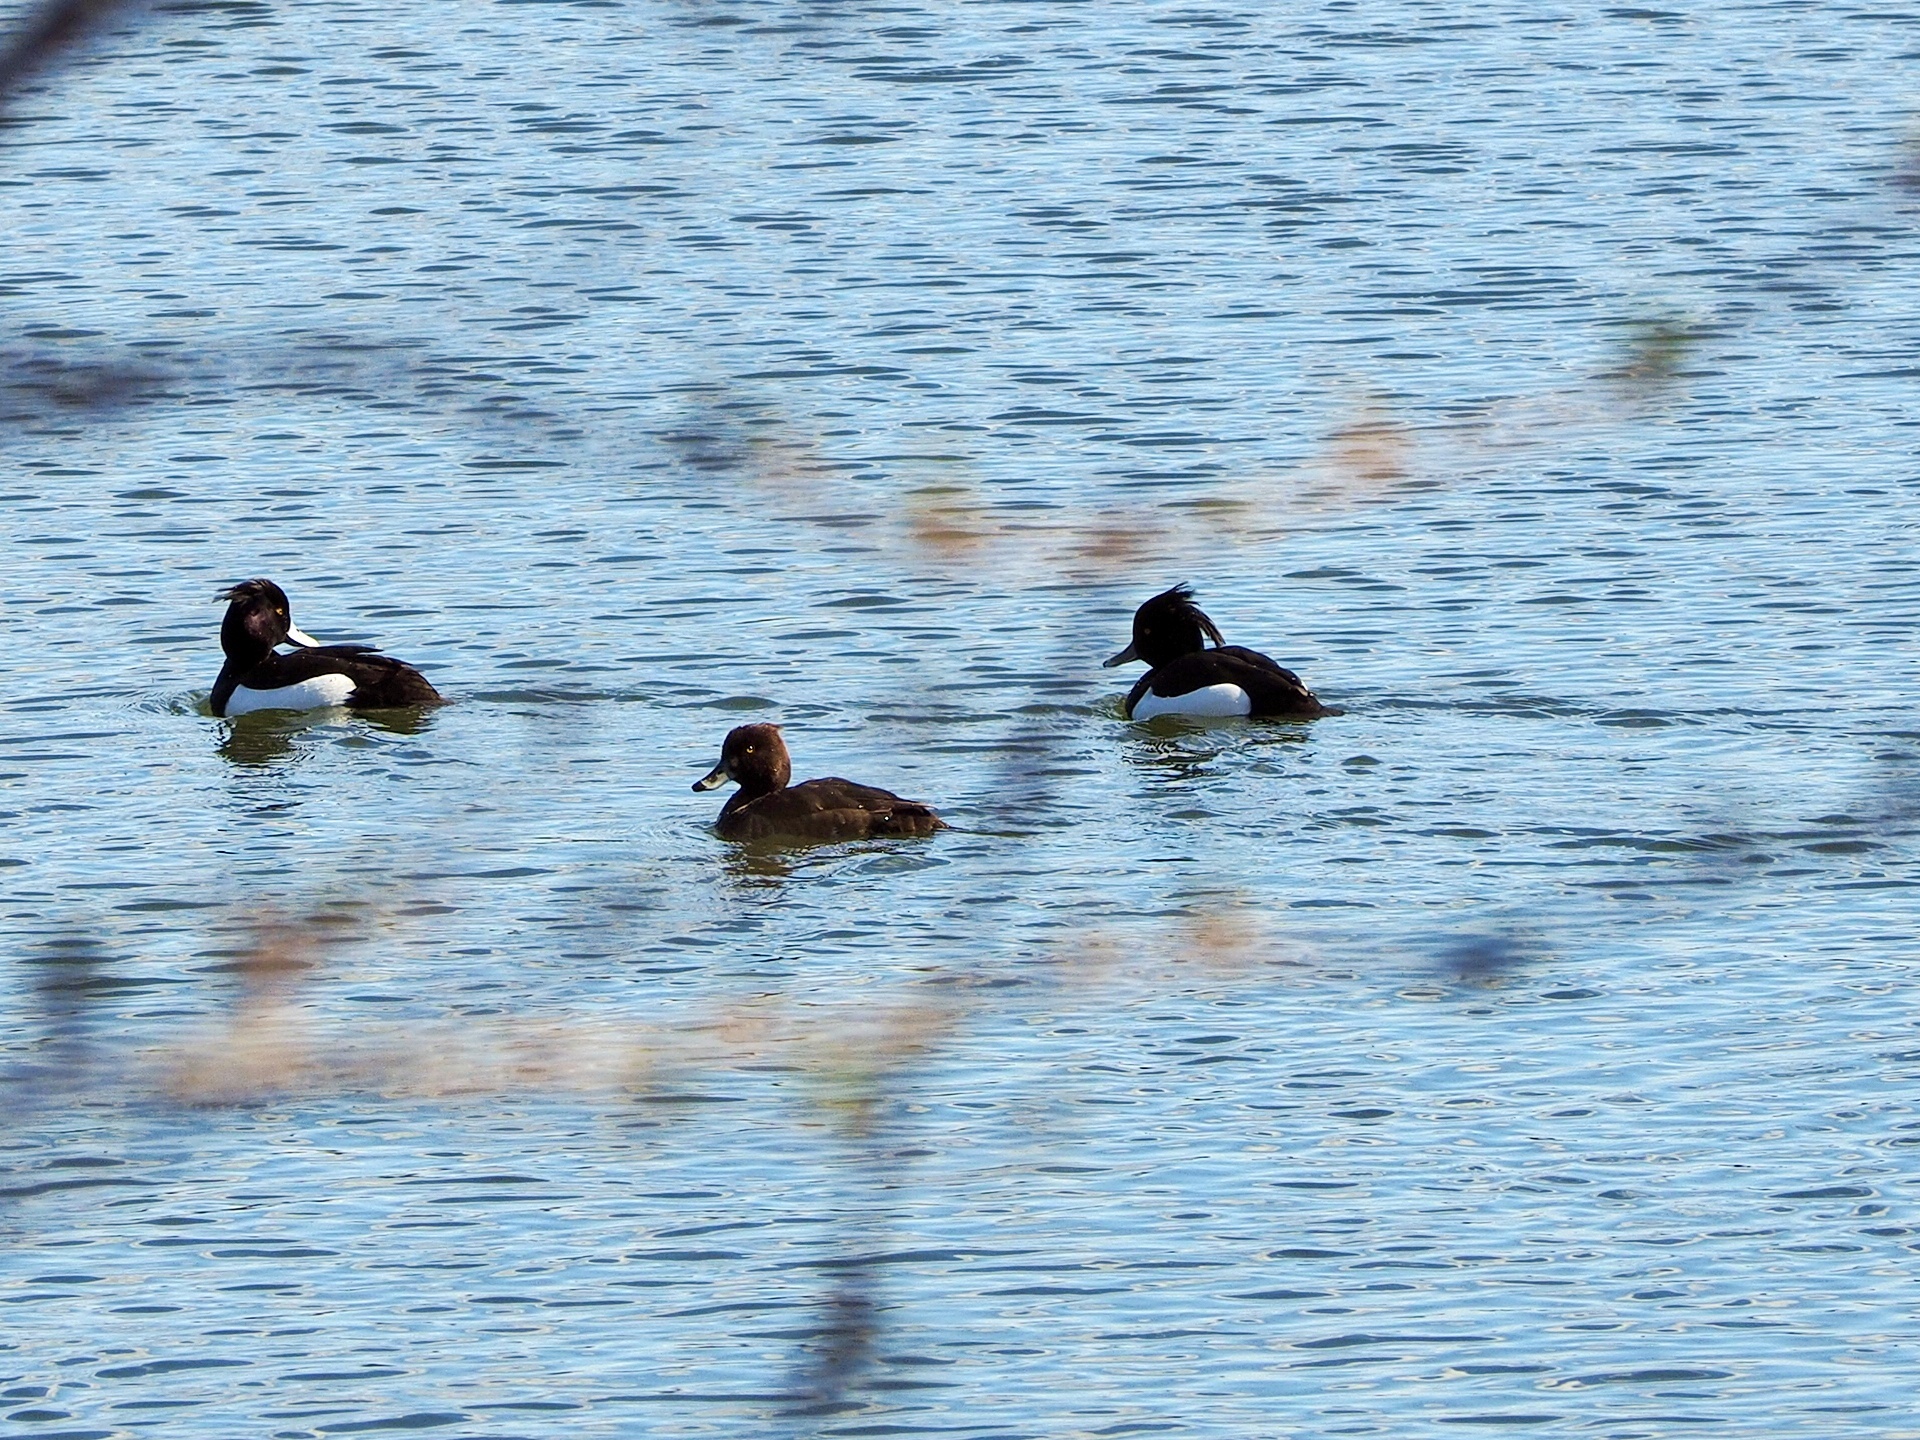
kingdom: Animalia
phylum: Chordata
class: Aves
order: Anseriformes
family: Anatidae
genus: Aythya
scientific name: Aythya fuligula
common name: Tufted duck
